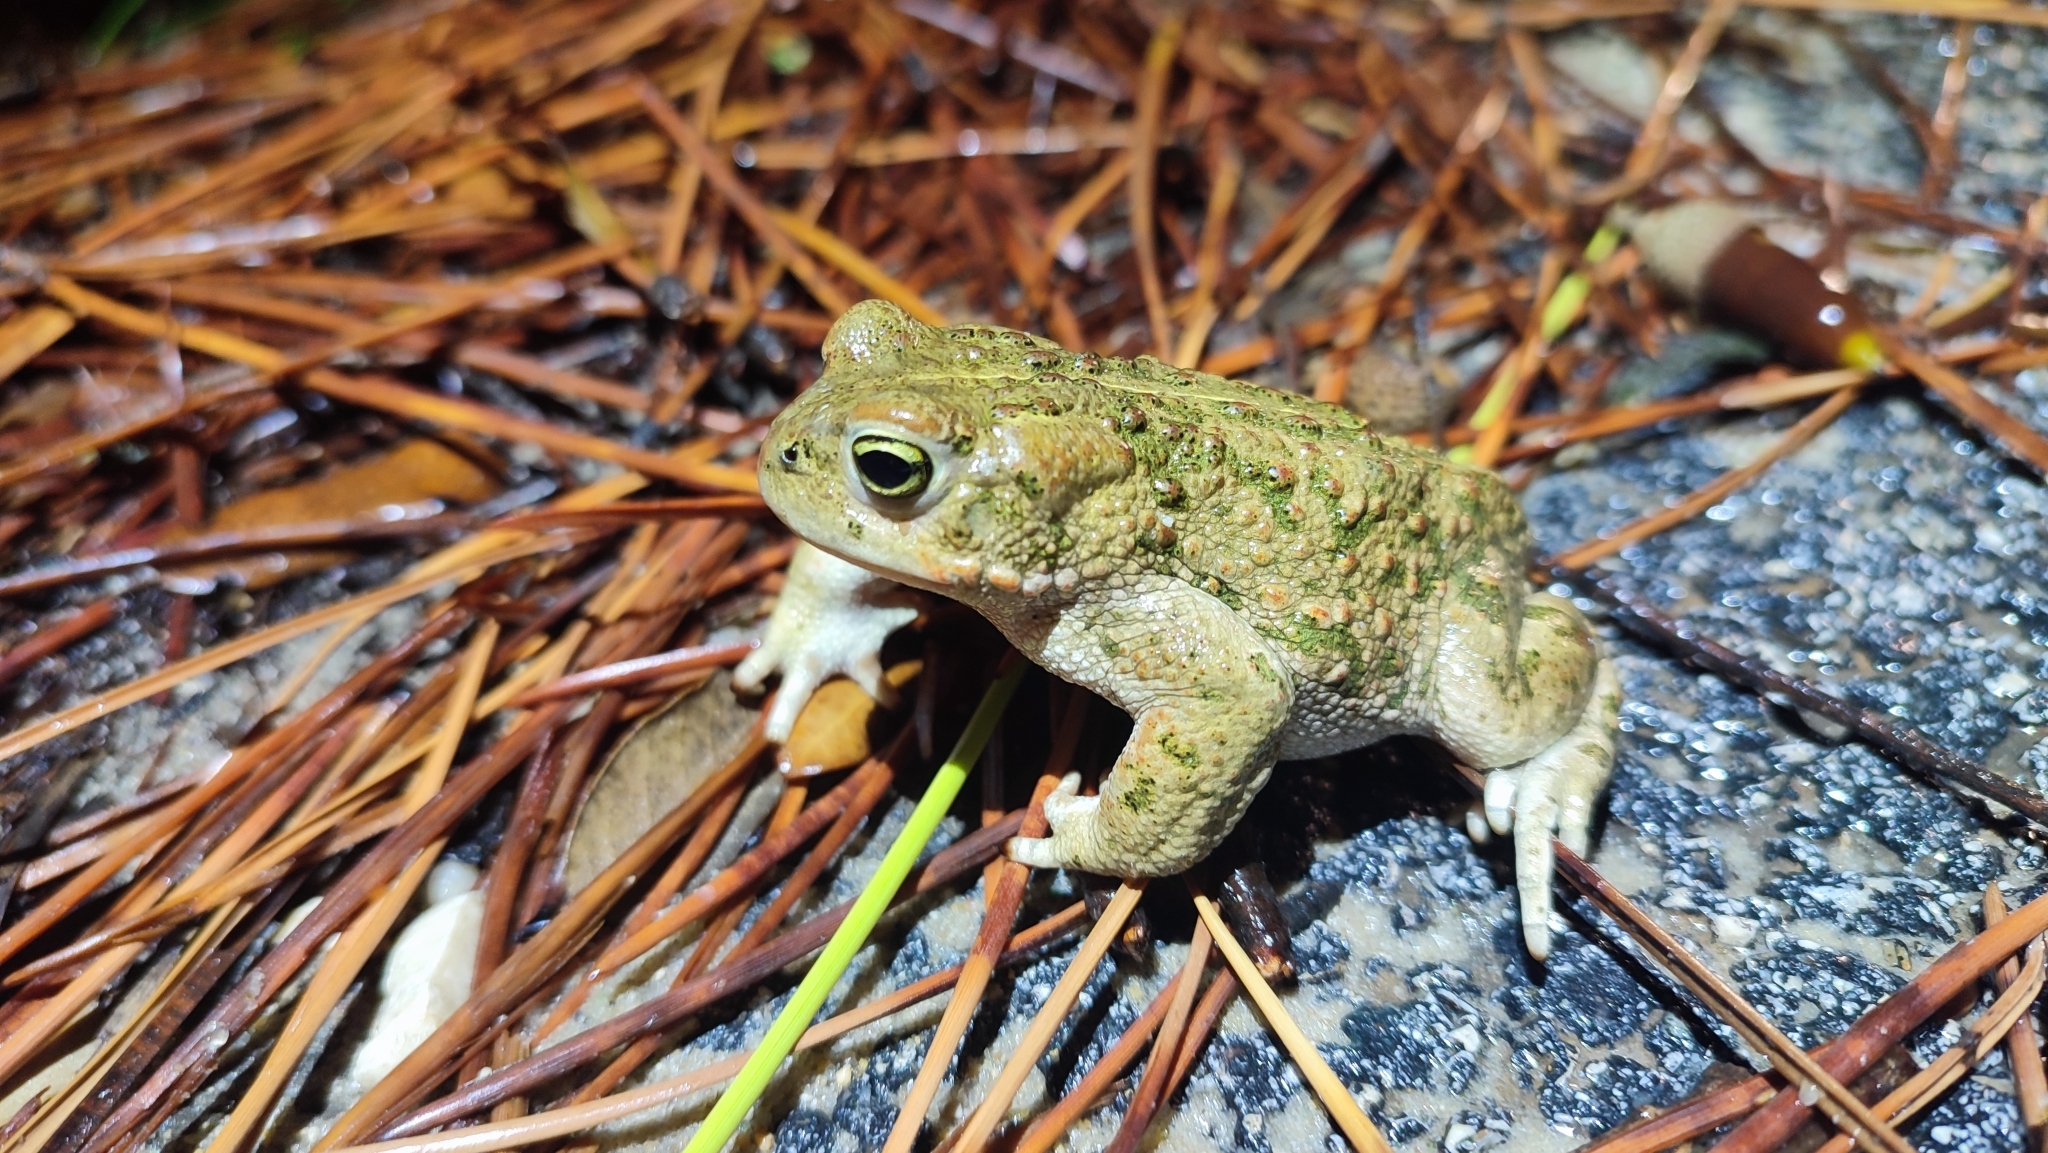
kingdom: Animalia
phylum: Chordata
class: Amphibia
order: Anura
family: Bufonidae
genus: Epidalea
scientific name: Epidalea calamita
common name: Natterjack toad
